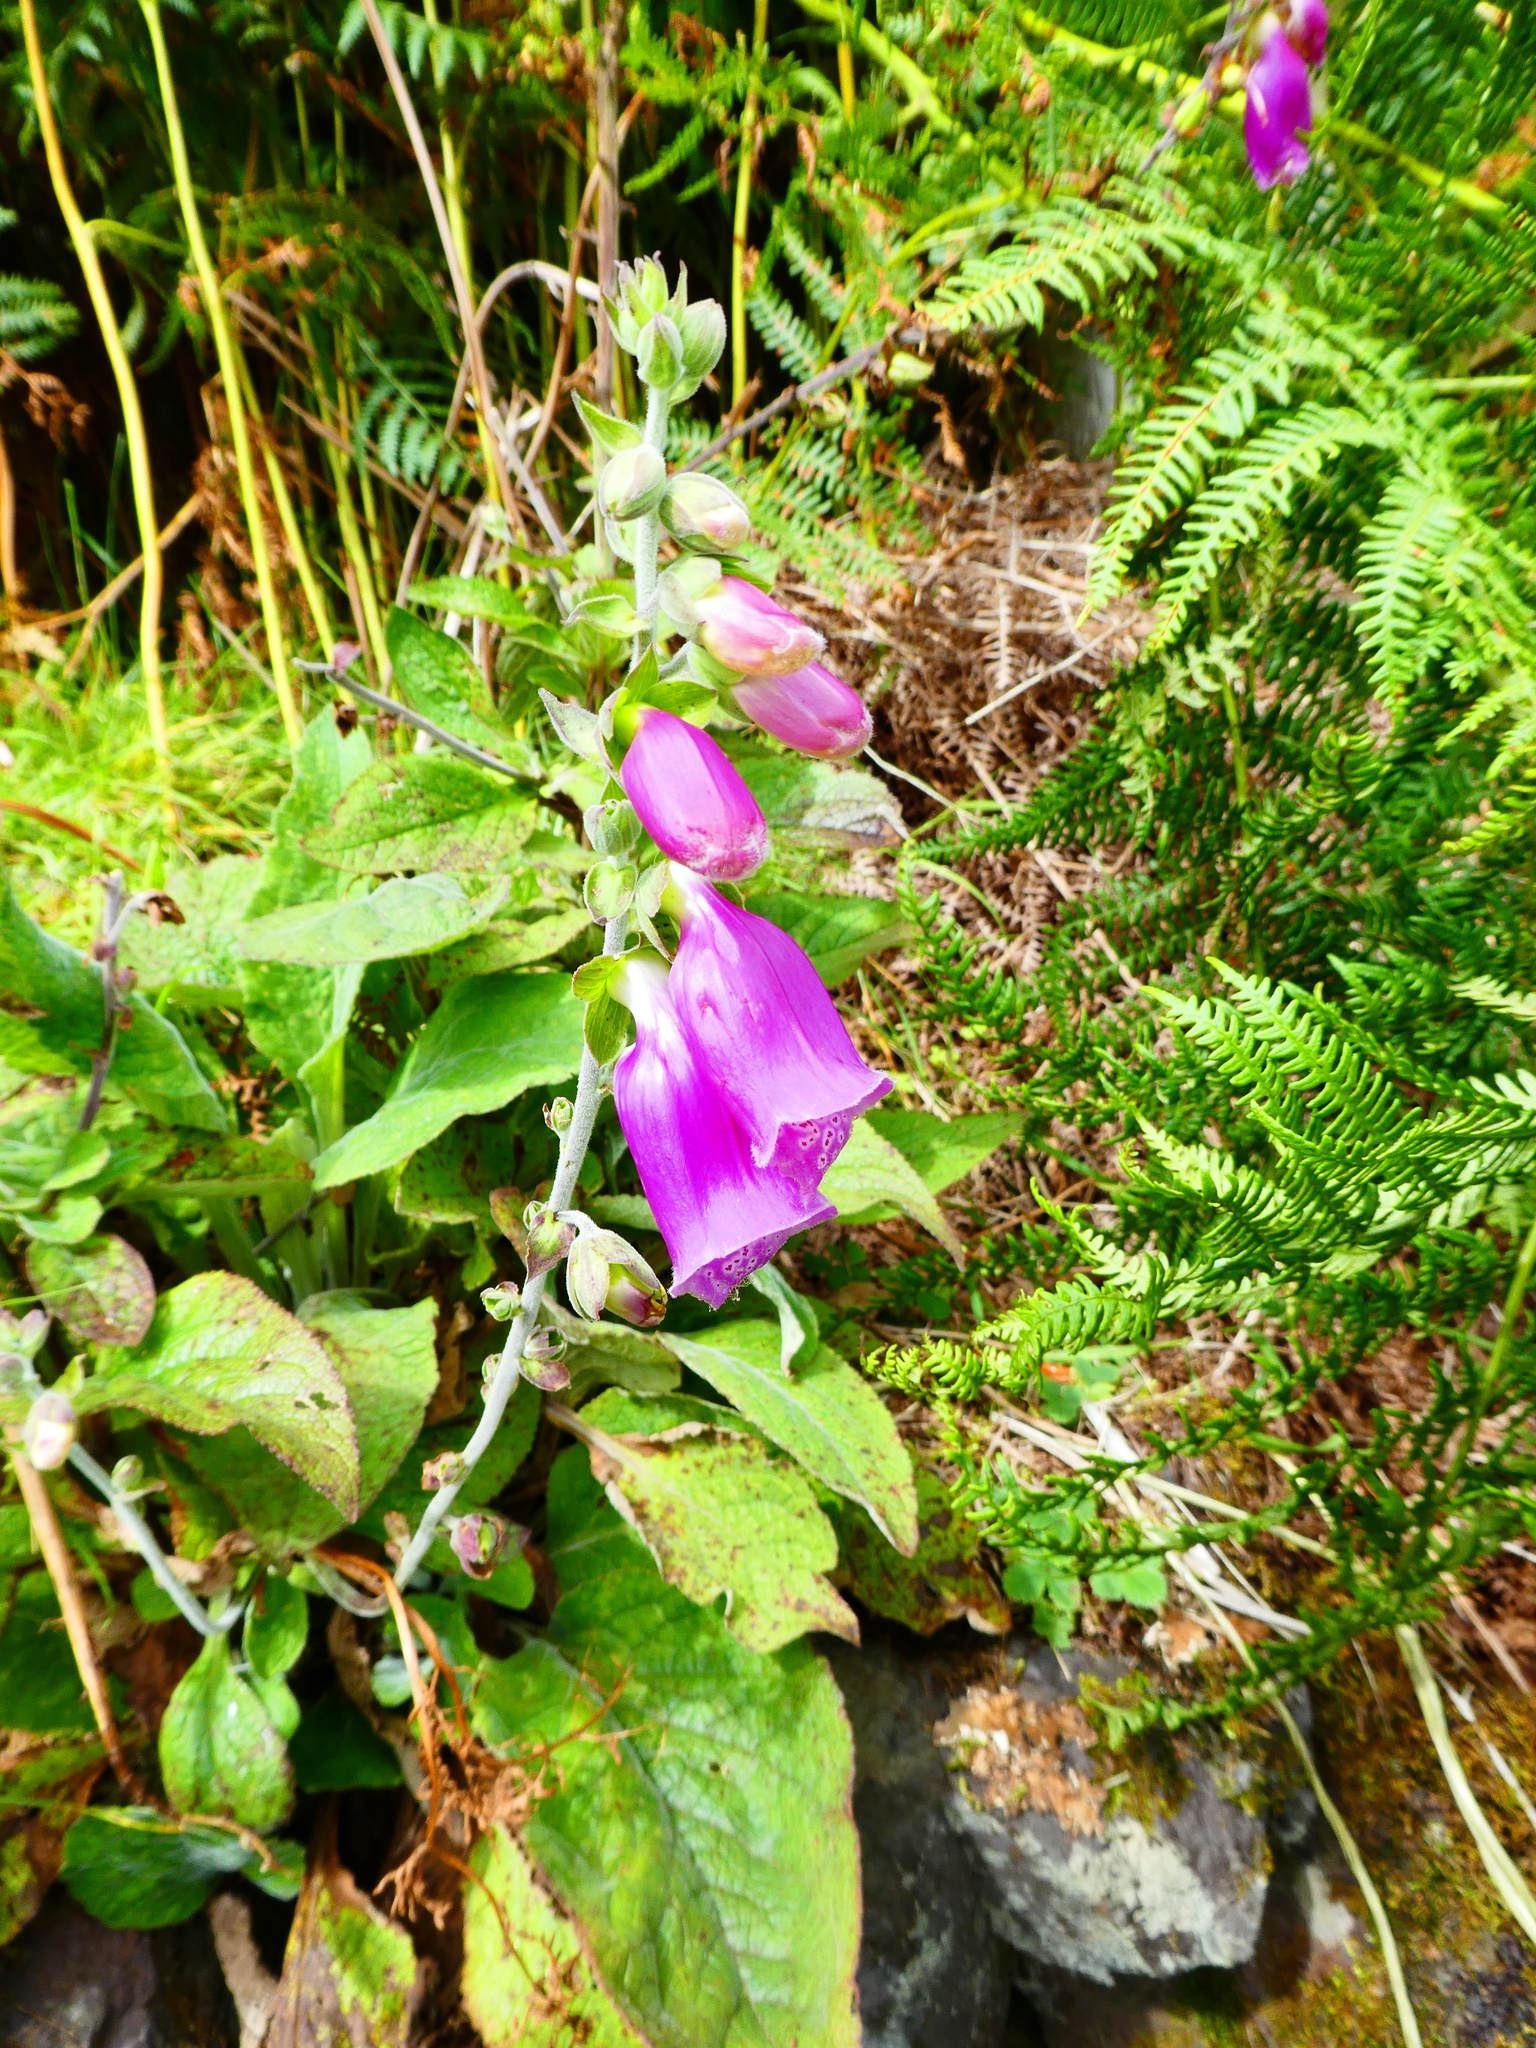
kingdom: Plantae
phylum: Tracheophyta
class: Magnoliopsida
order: Lamiales
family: Plantaginaceae
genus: Digitalis
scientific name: Digitalis purpurea
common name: Foxglove
